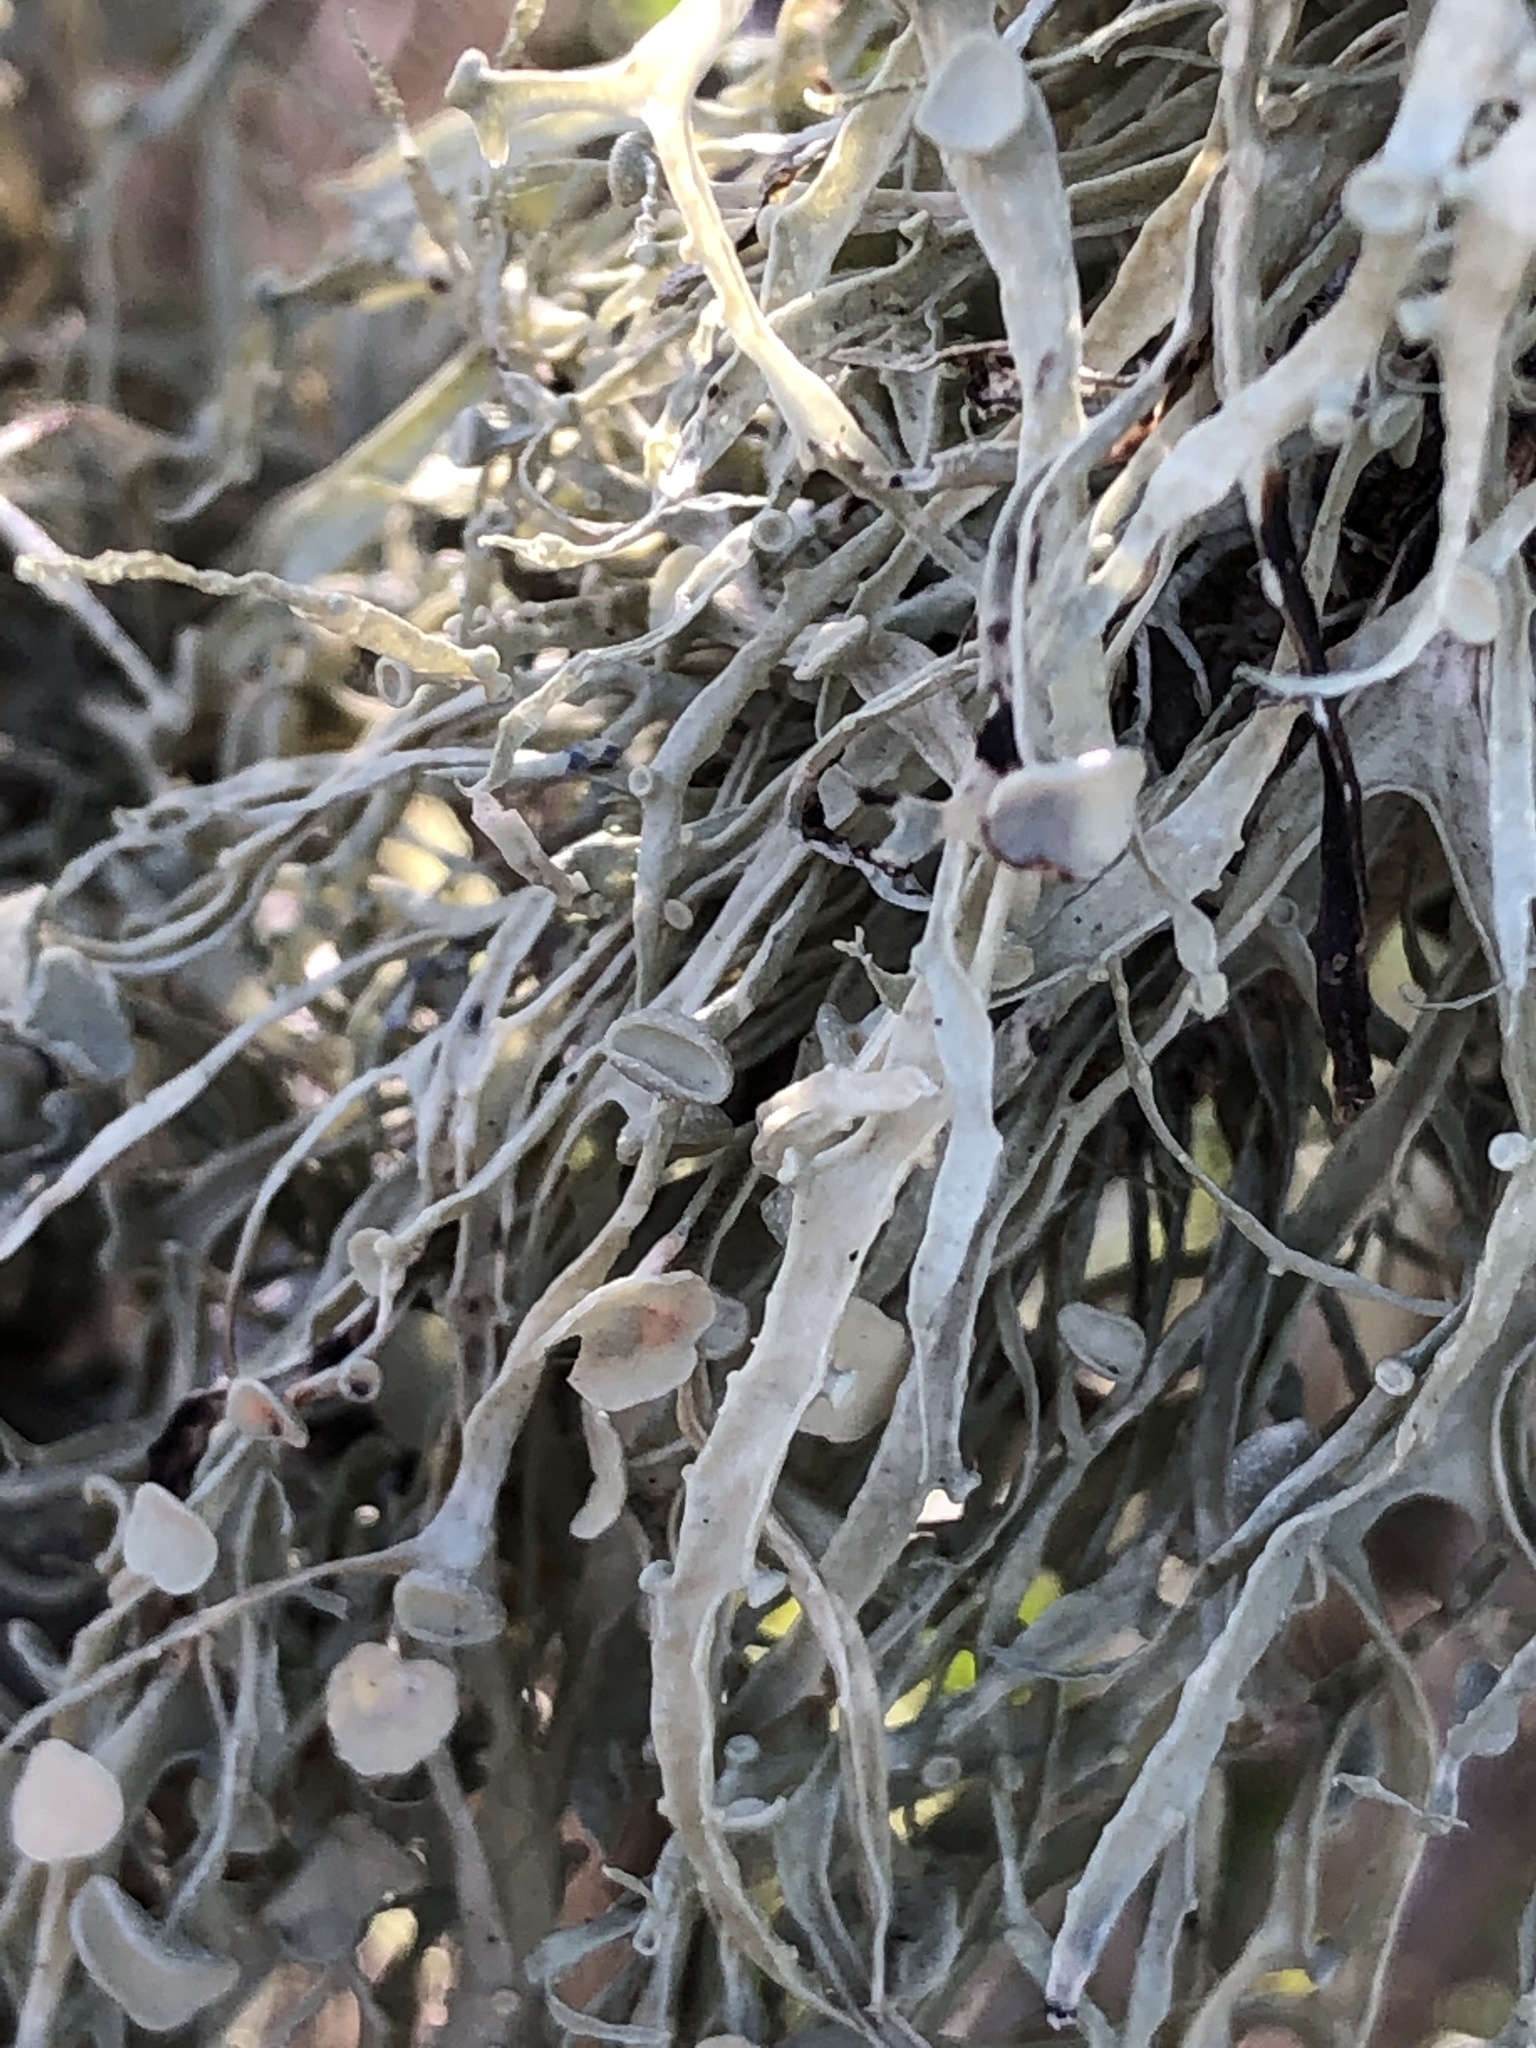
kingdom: Fungi
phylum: Ascomycota
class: Lecanoromycetes
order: Lecanorales
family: Ramalinaceae
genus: Ramalina
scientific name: Ramalina leptocarpha
